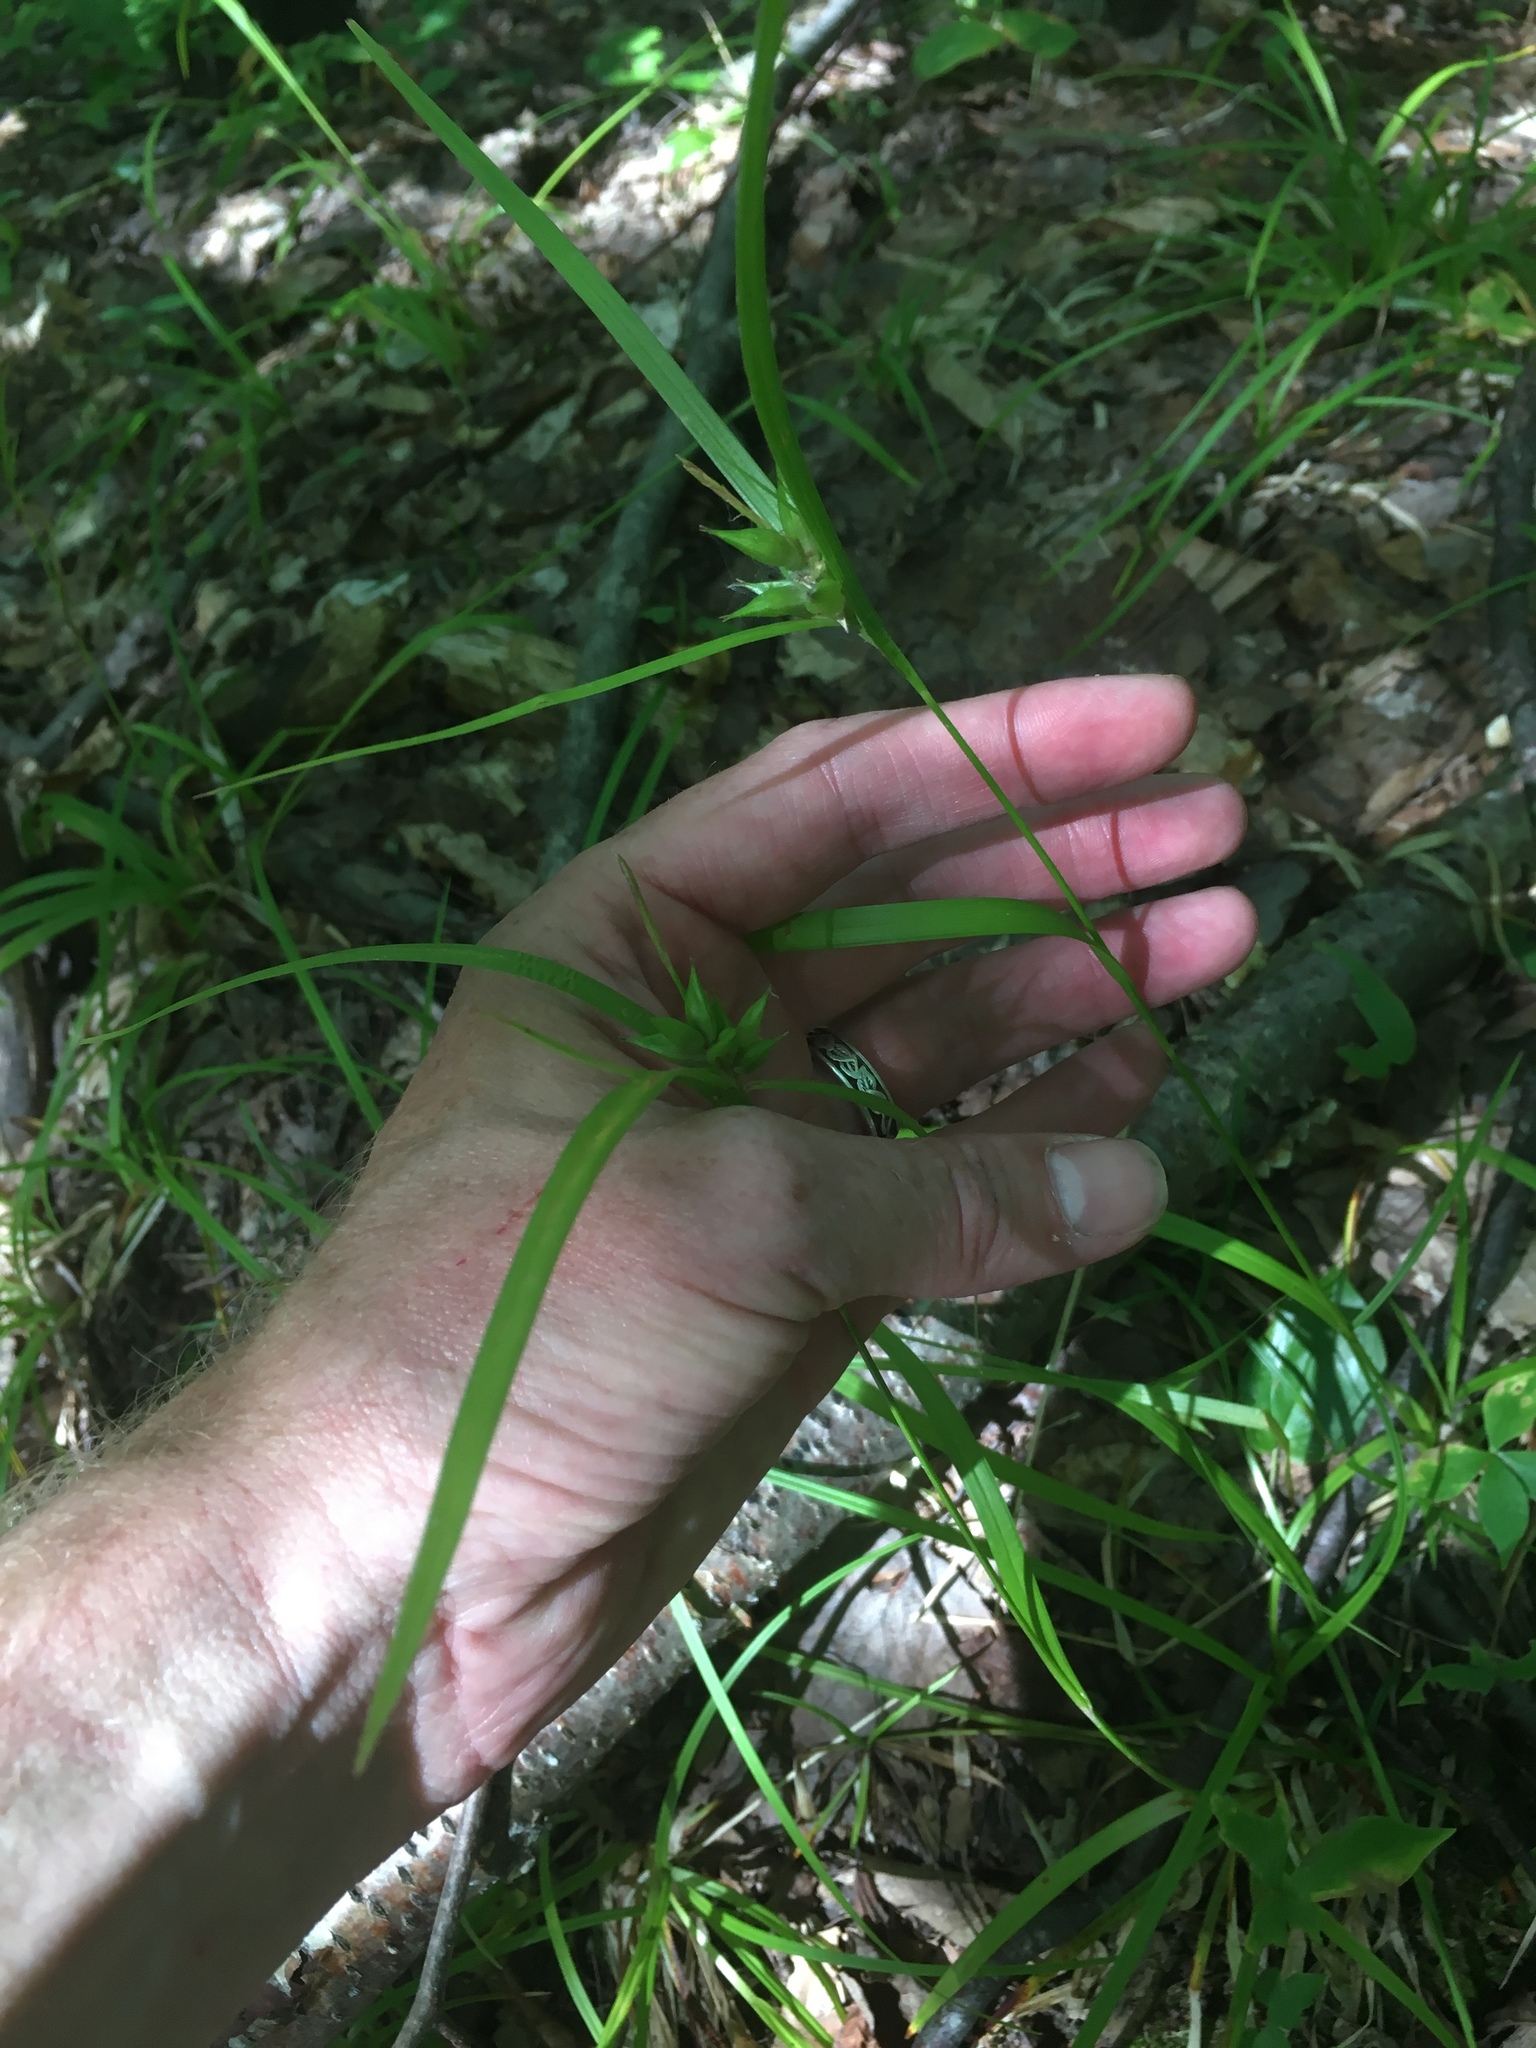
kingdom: Plantae
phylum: Tracheophyta
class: Liliopsida
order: Poales
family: Cyperaceae
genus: Carex
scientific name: Carex intumescens
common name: Greater bladder sedge
